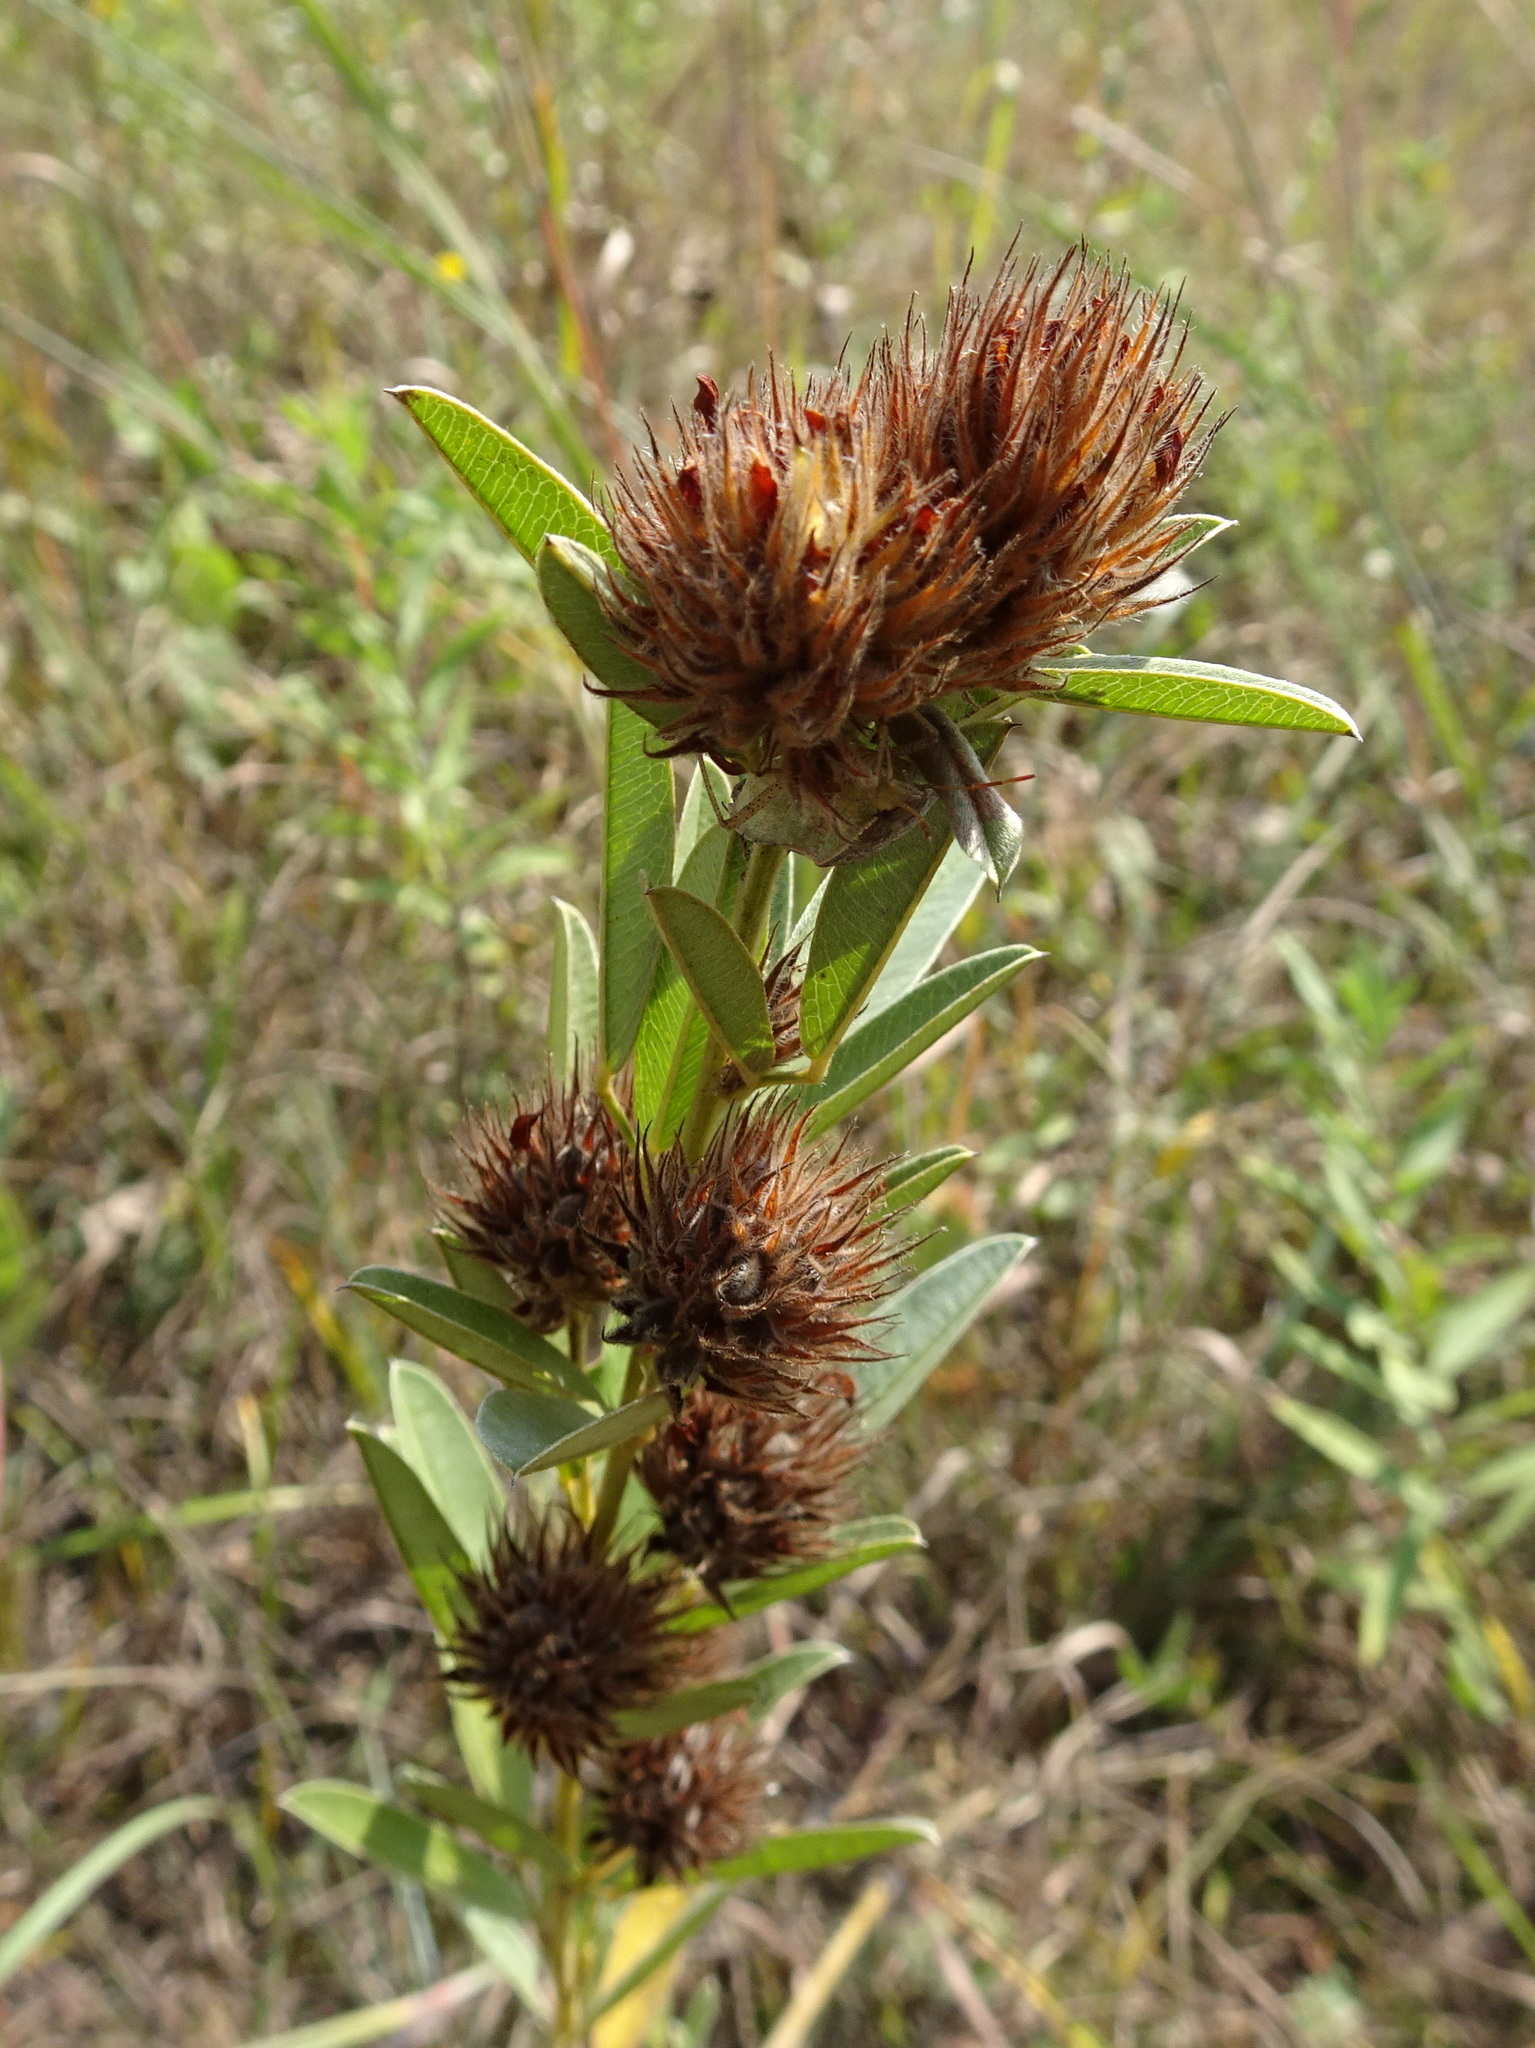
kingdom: Plantae
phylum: Tracheophyta
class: Magnoliopsida
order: Fabales
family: Fabaceae
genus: Lespedeza
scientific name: Lespedeza capitata
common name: Dusty clover
